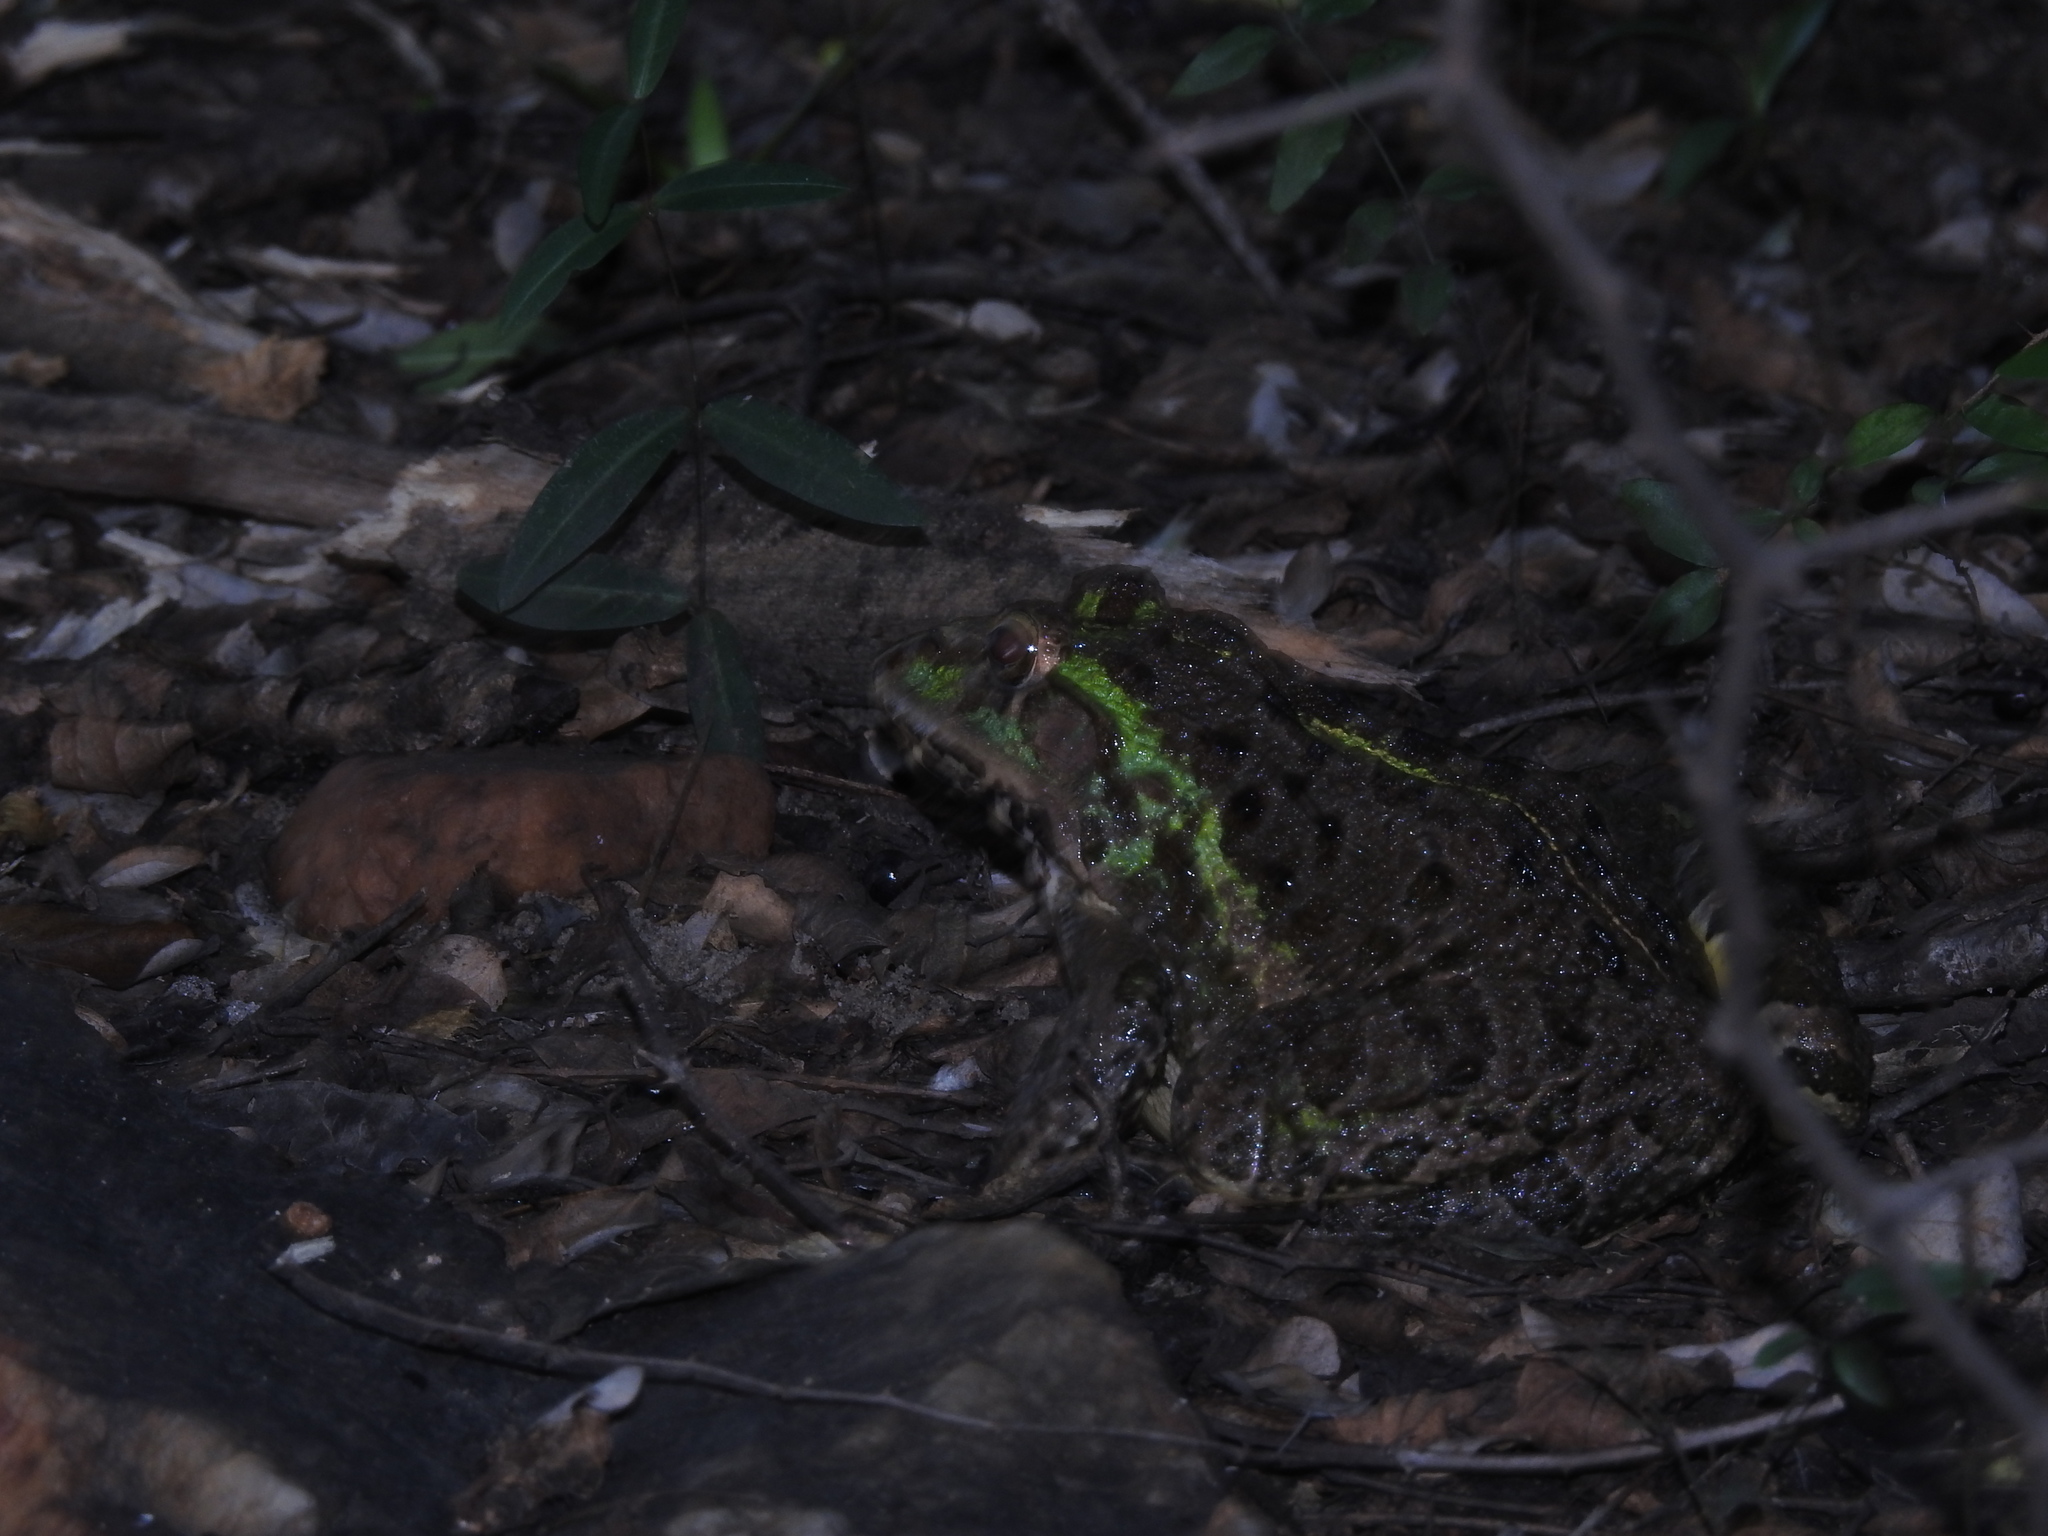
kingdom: Animalia
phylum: Chordata
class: Amphibia
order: Anura
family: Dicroglossidae
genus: Hoplobatrachus
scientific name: Hoplobatrachus tigerinus
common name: Indian bullfrog
